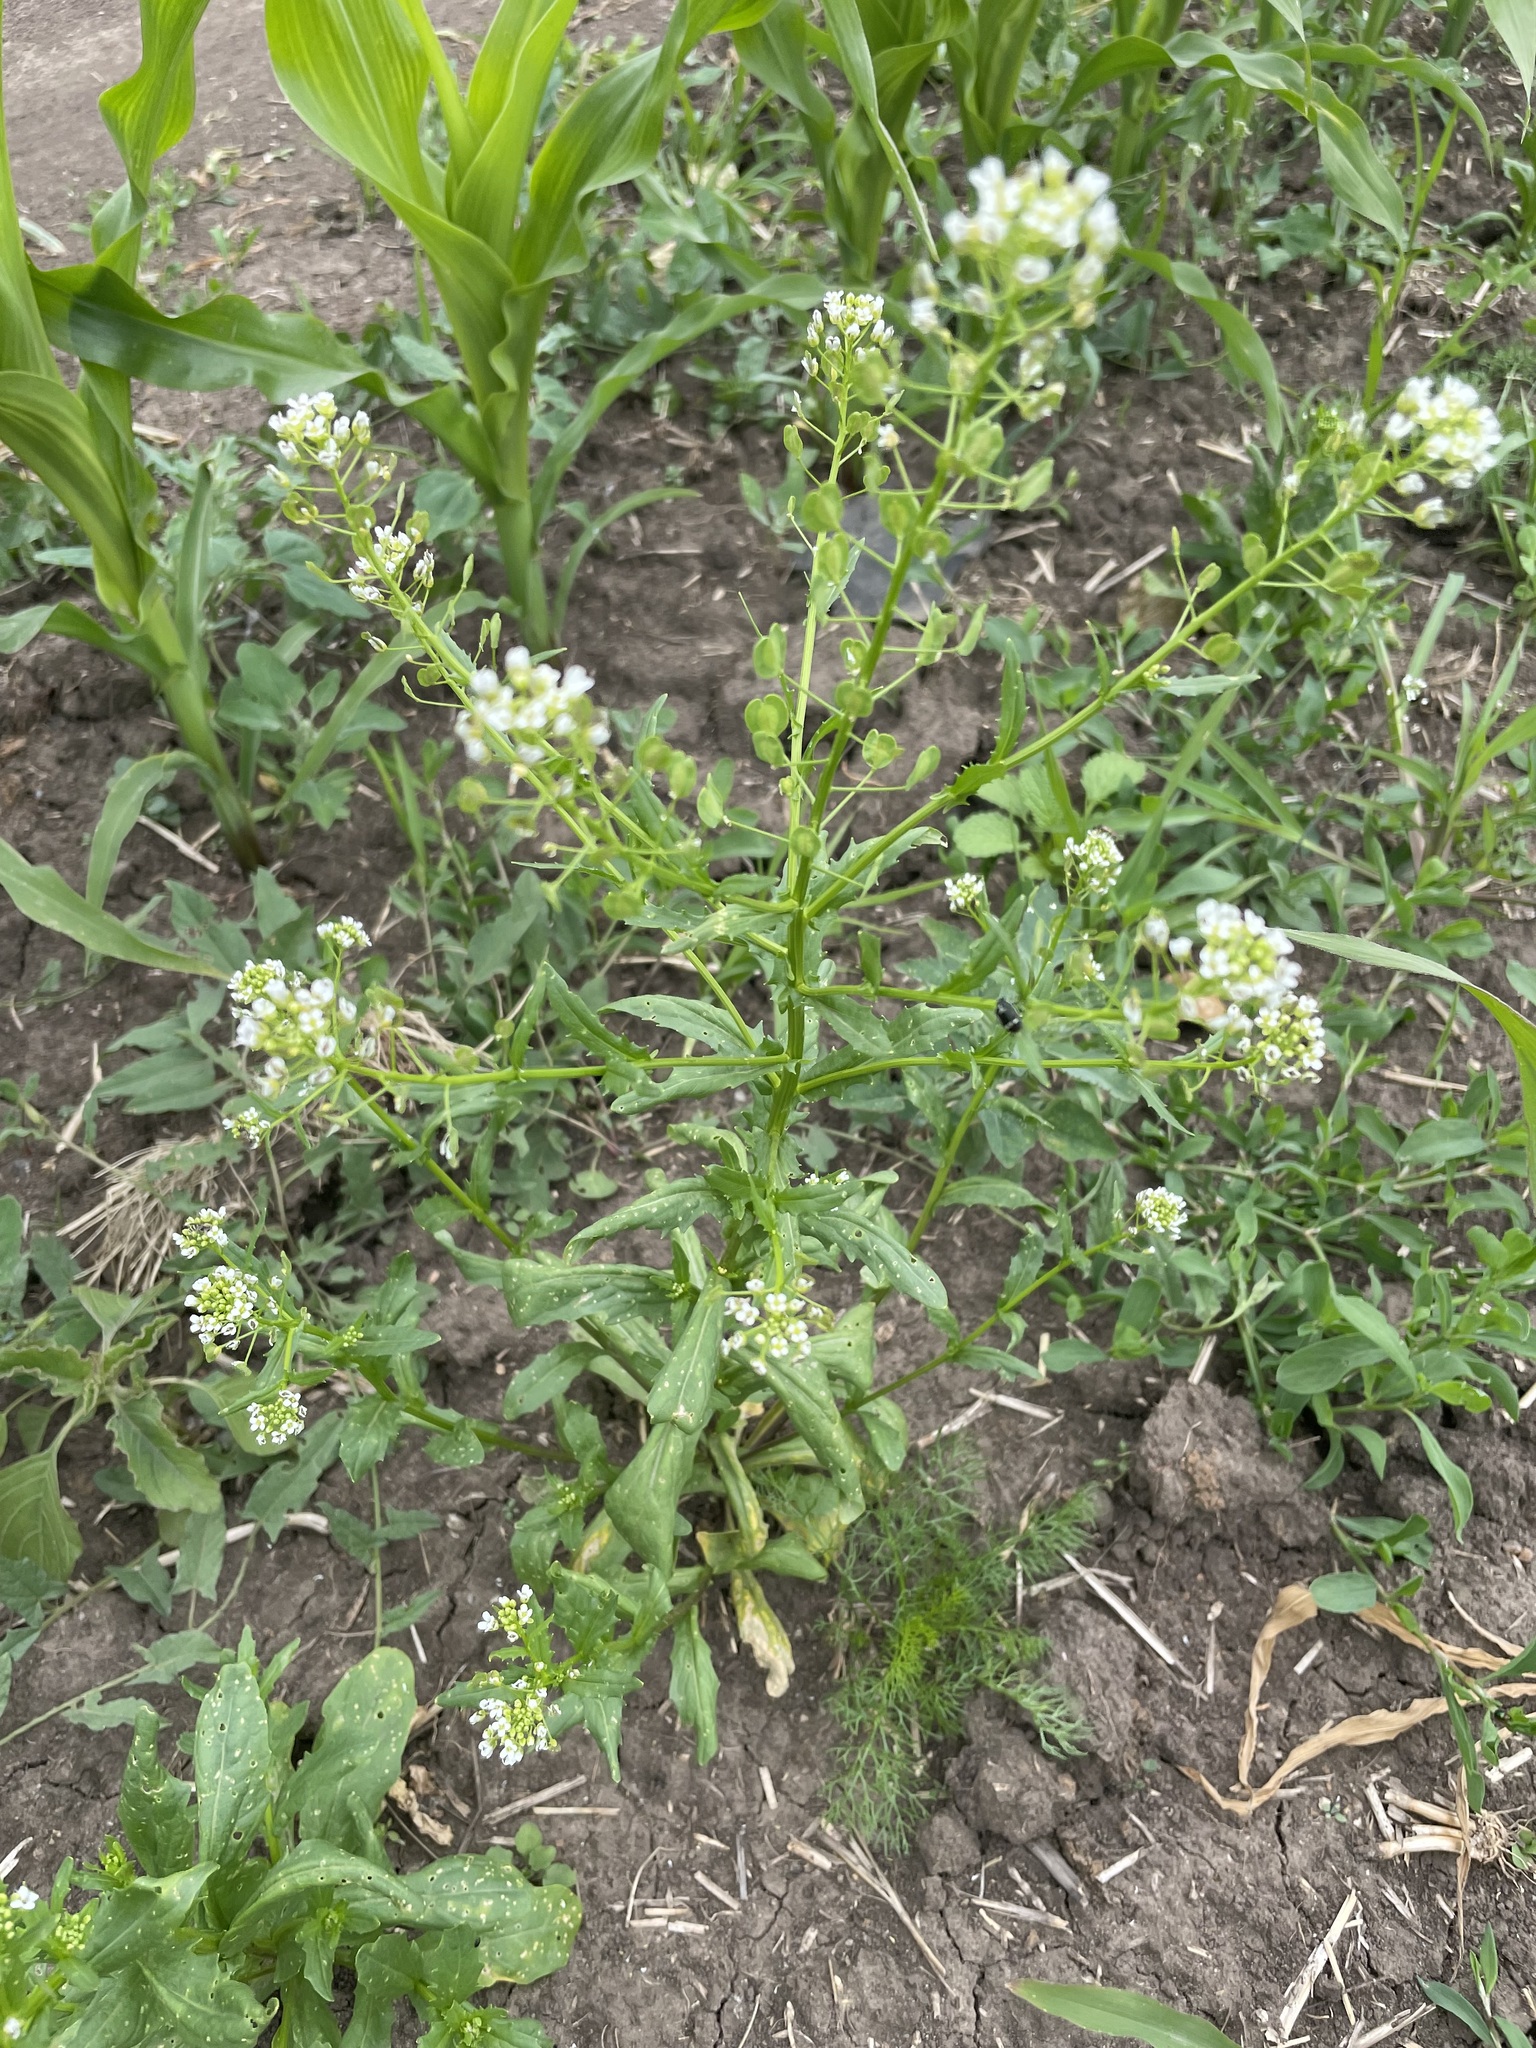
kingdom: Plantae
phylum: Tracheophyta
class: Magnoliopsida
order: Brassicales
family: Brassicaceae
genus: Thlaspi
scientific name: Thlaspi arvense
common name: Field pennycress
